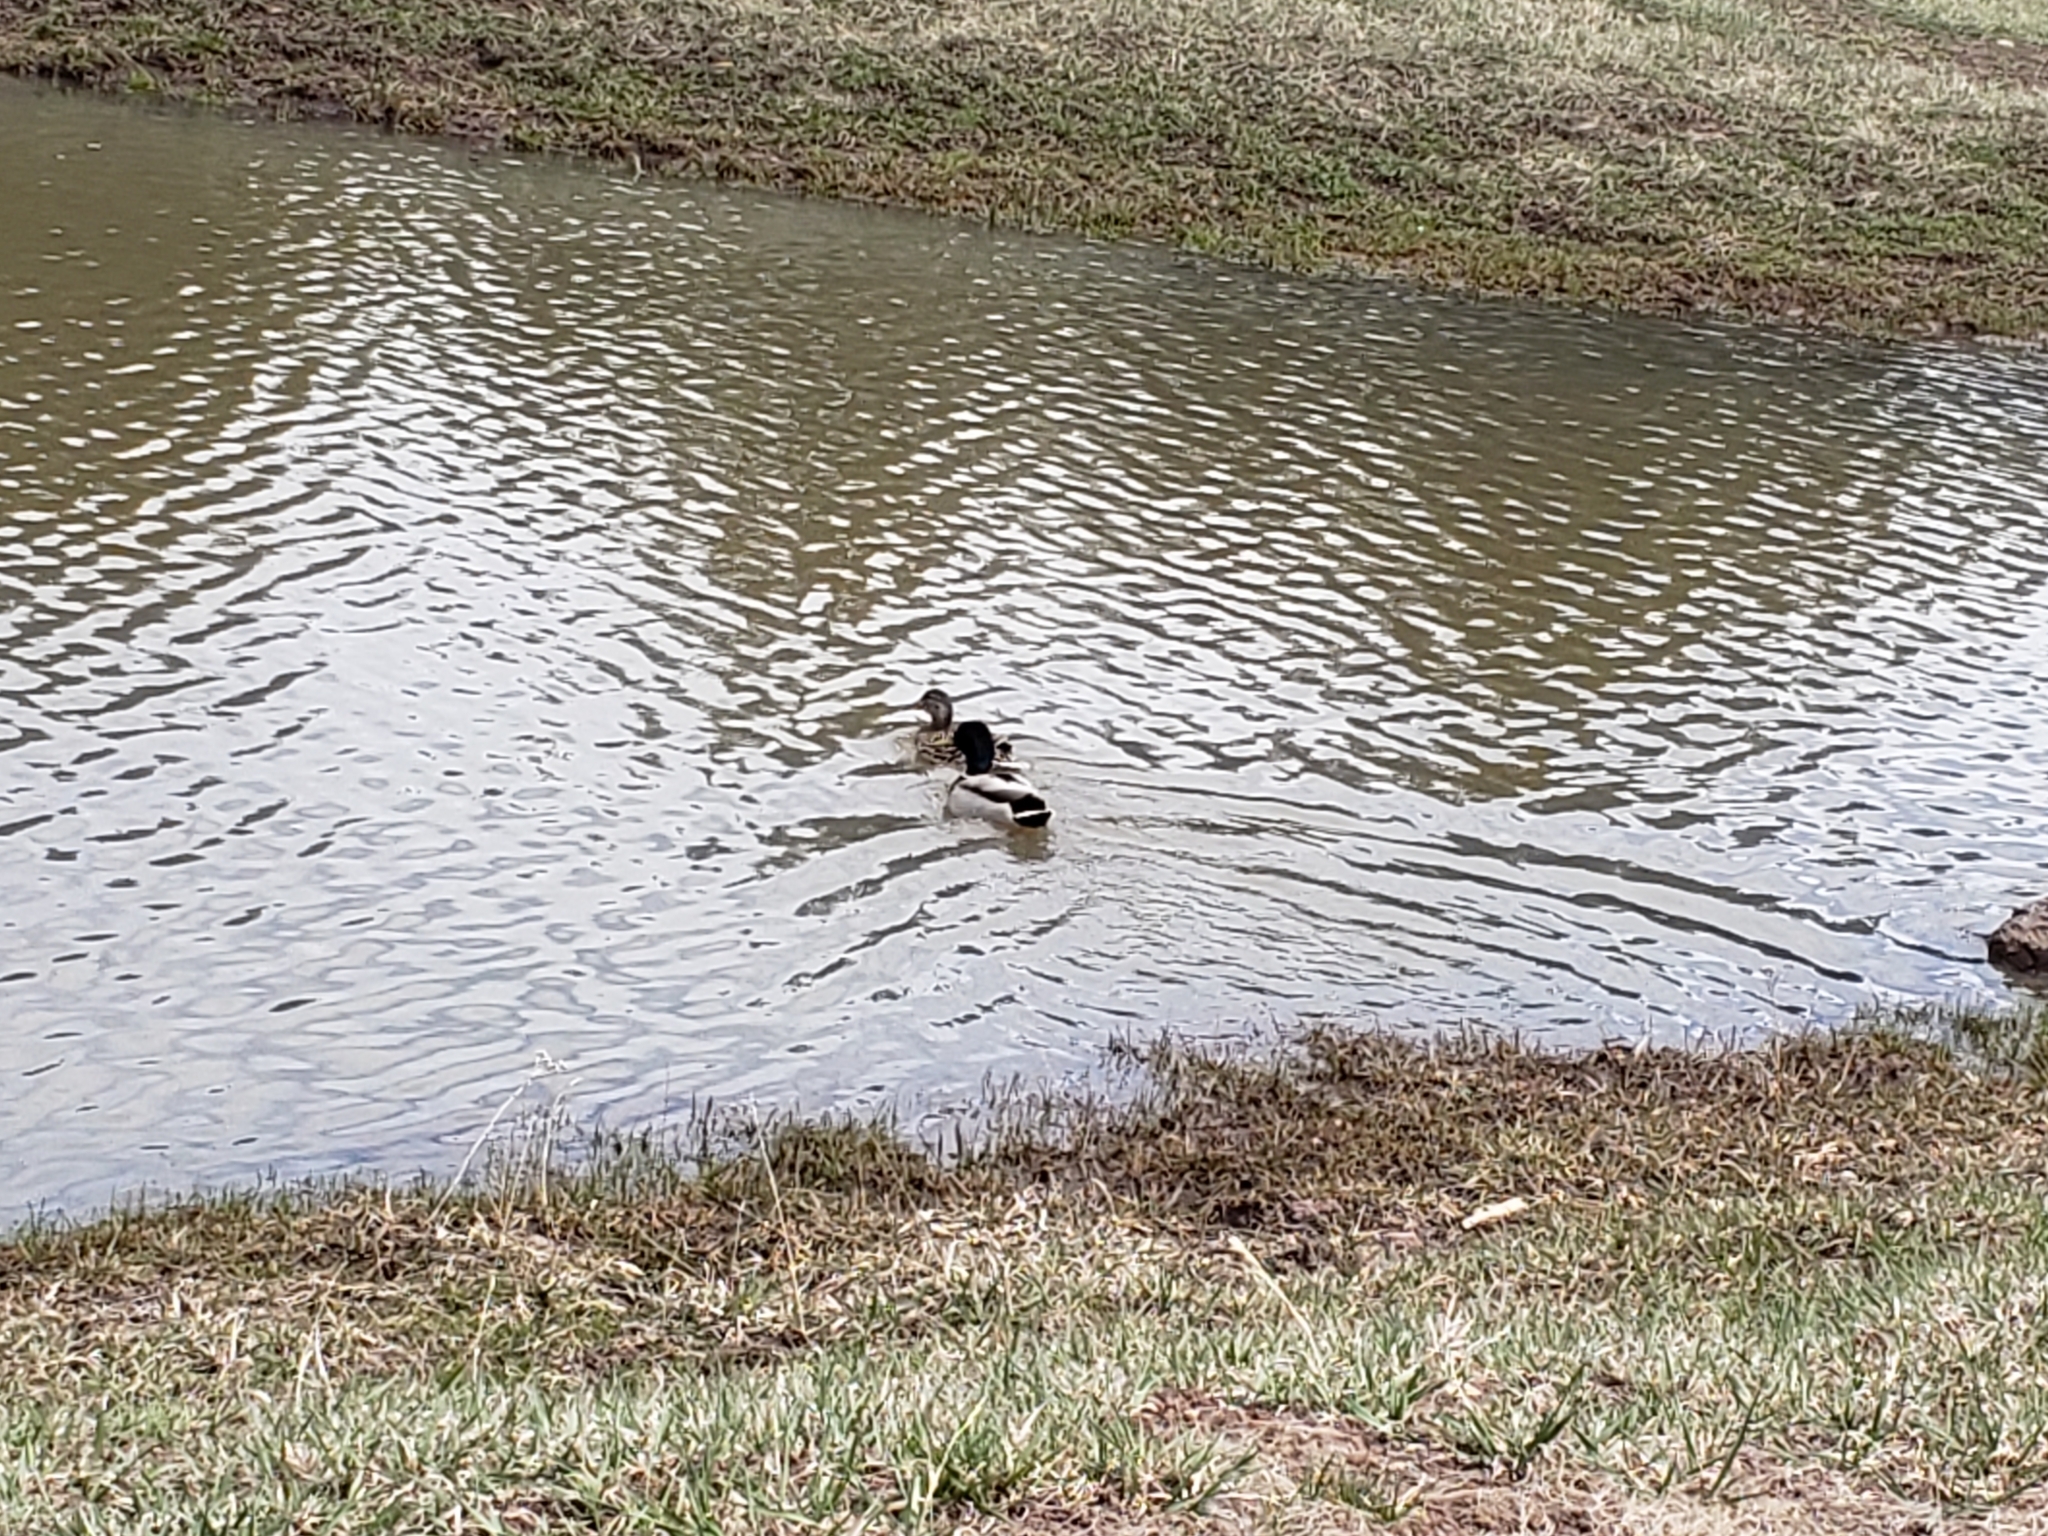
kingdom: Animalia
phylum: Chordata
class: Aves
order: Anseriformes
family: Anatidae
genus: Anas
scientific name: Anas platyrhynchos
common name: Mallard
